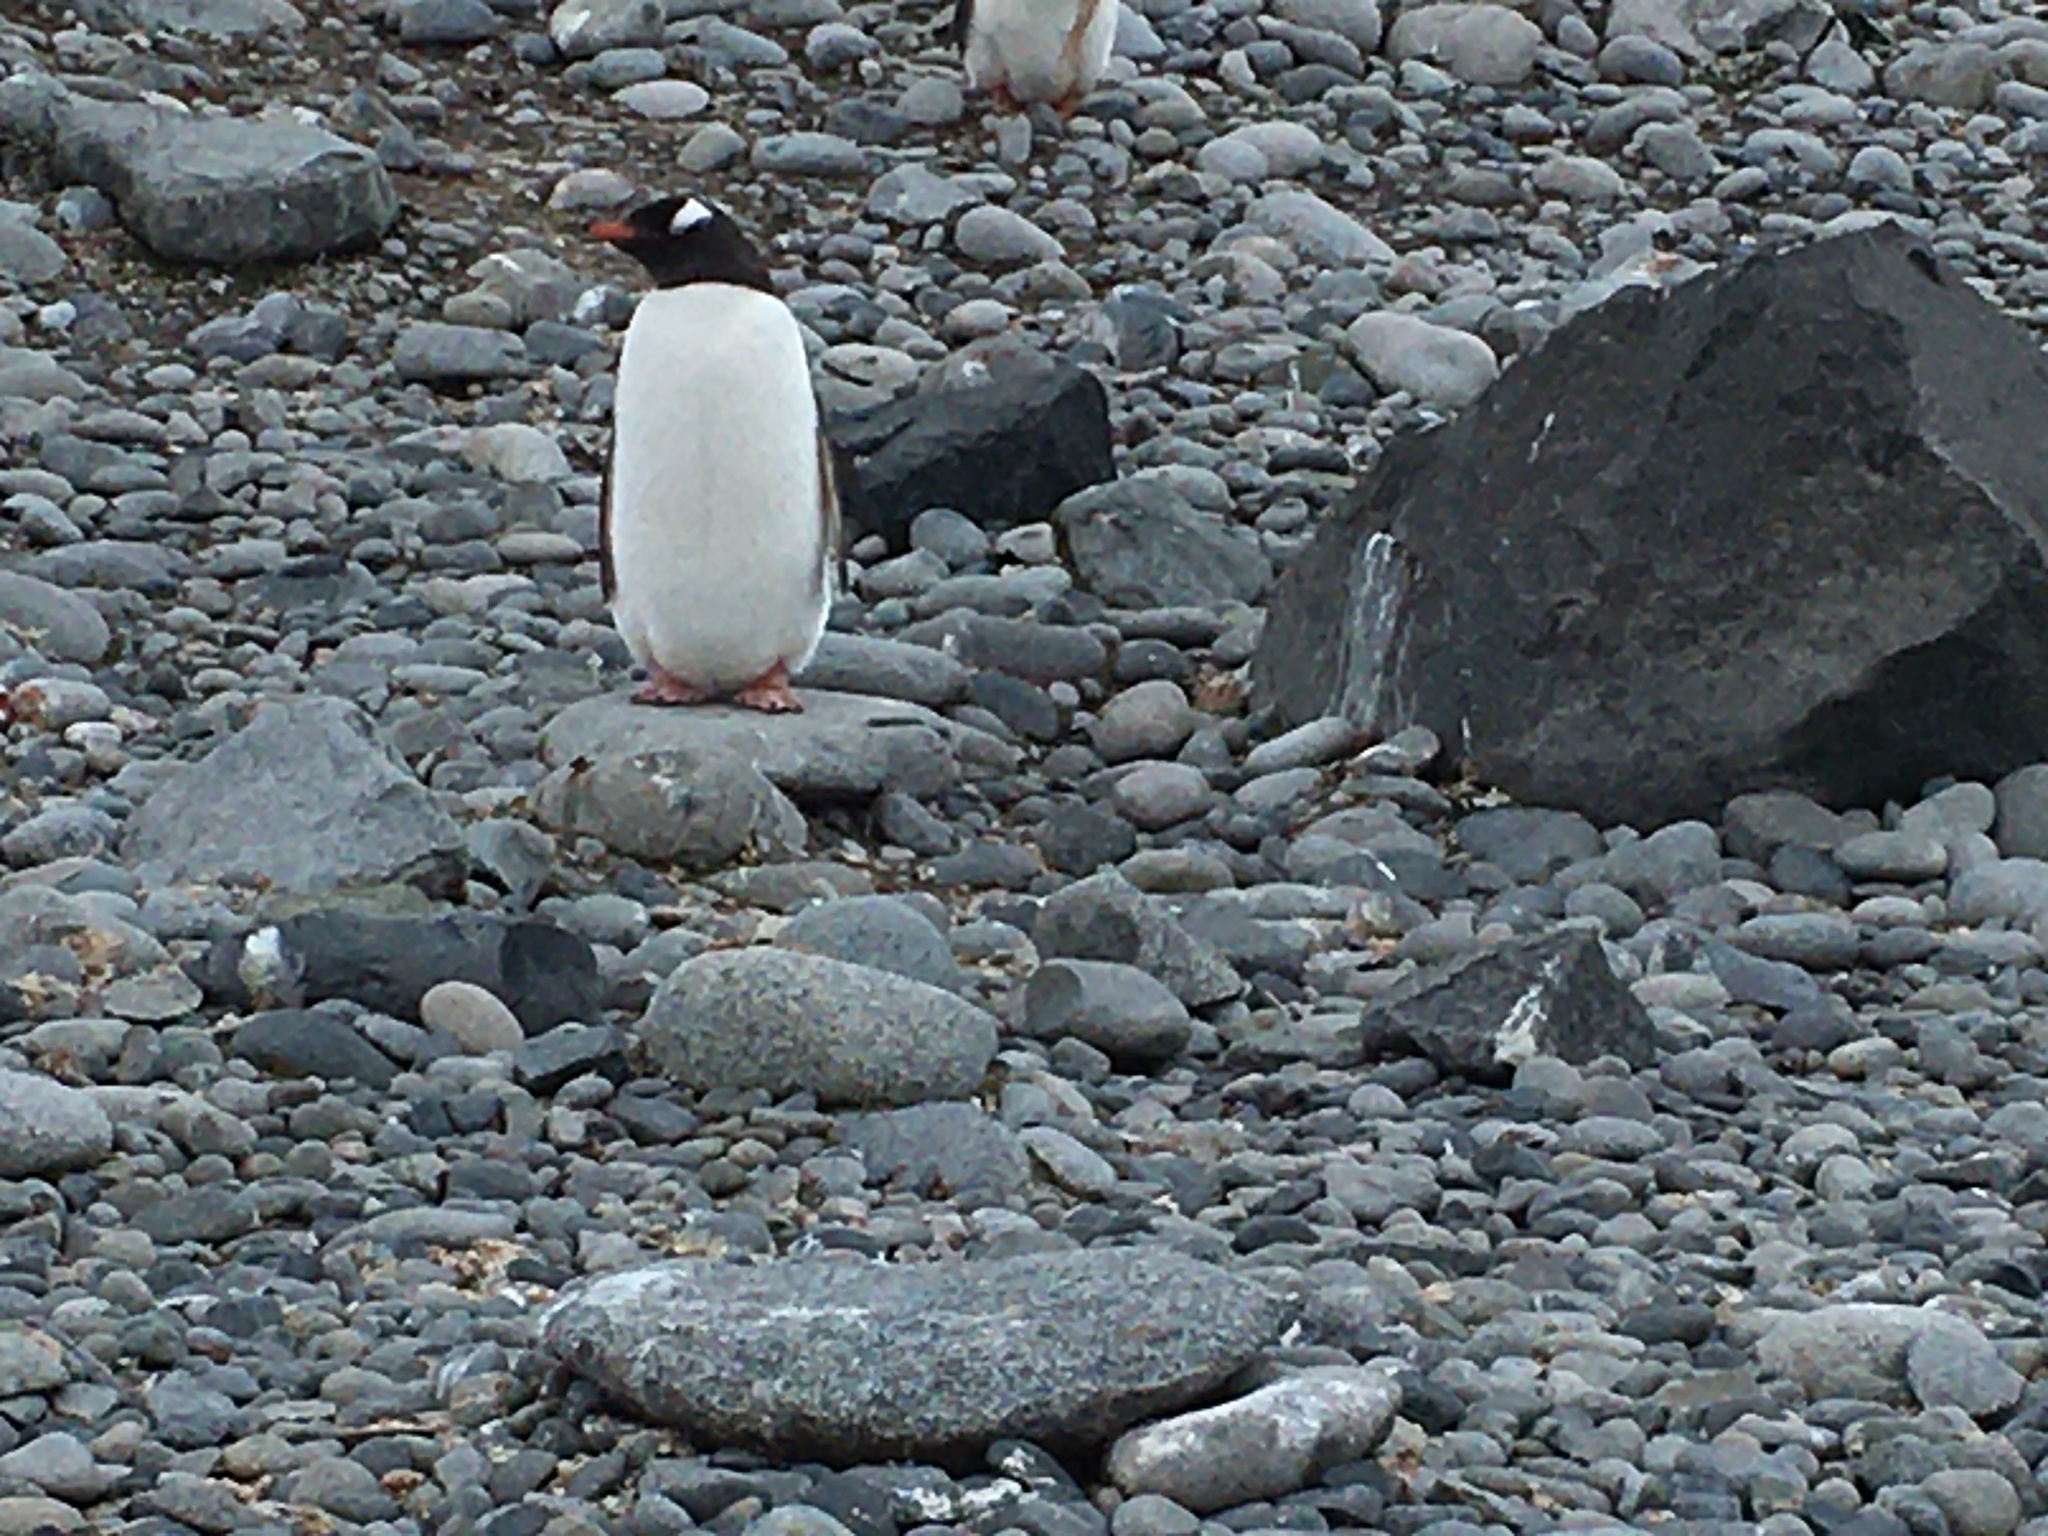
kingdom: Animalia
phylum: Chordata
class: Aves
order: Sphenisciformes
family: Spheniscidae
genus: Pygoscelis
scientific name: Pygoscelis papua
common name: Gentoo penguin
